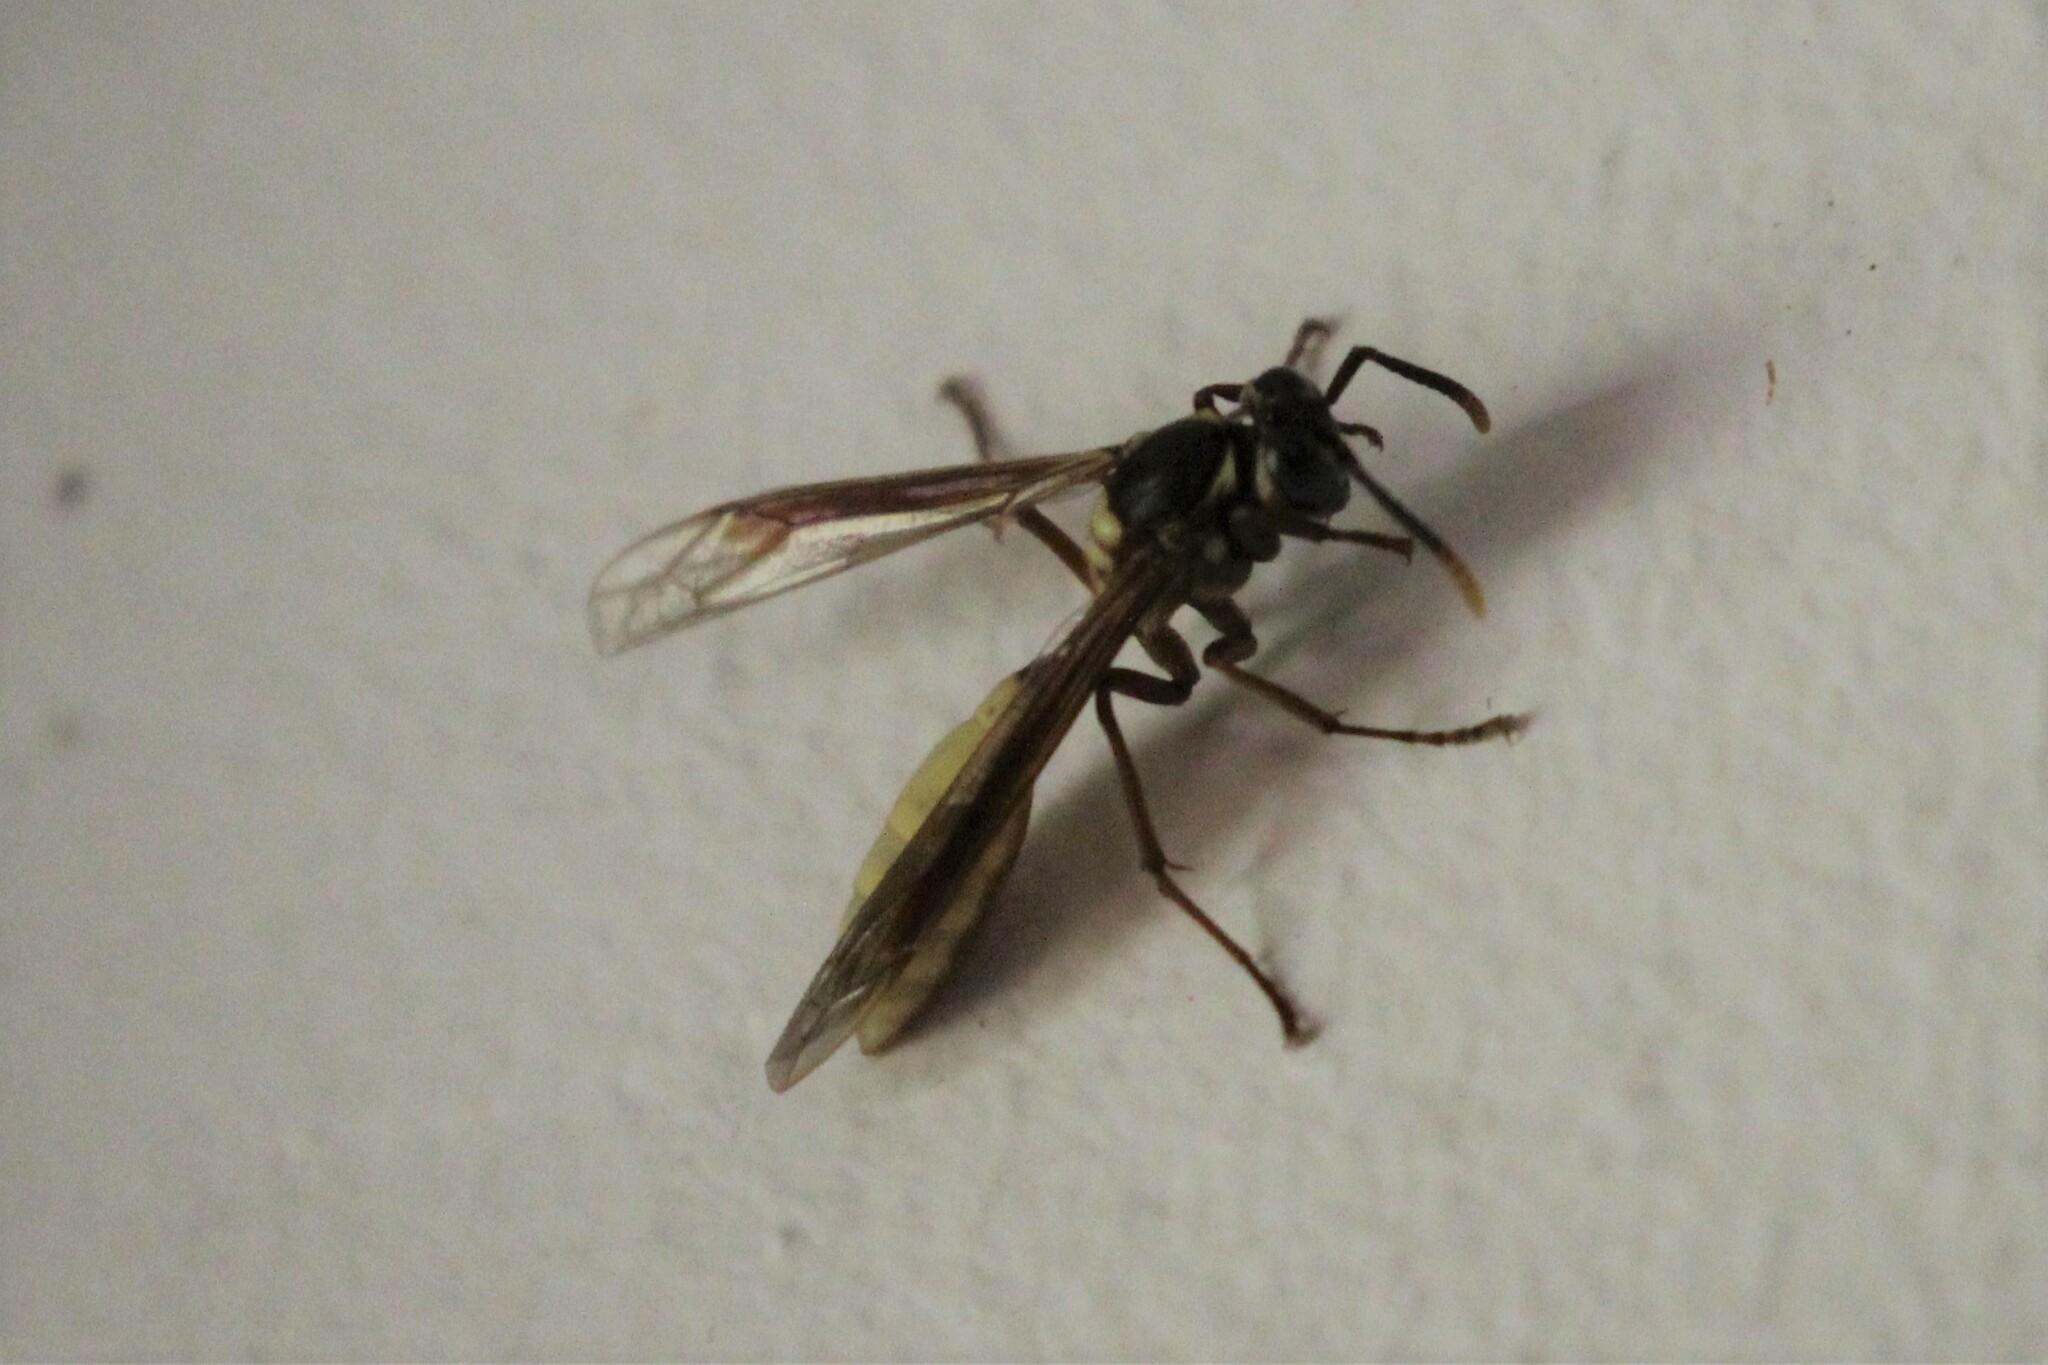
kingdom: Animalia
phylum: Arthropoda
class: Insecta
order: Hymenoptera
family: Vespidae
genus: Apoica
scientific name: Apoica pallens
